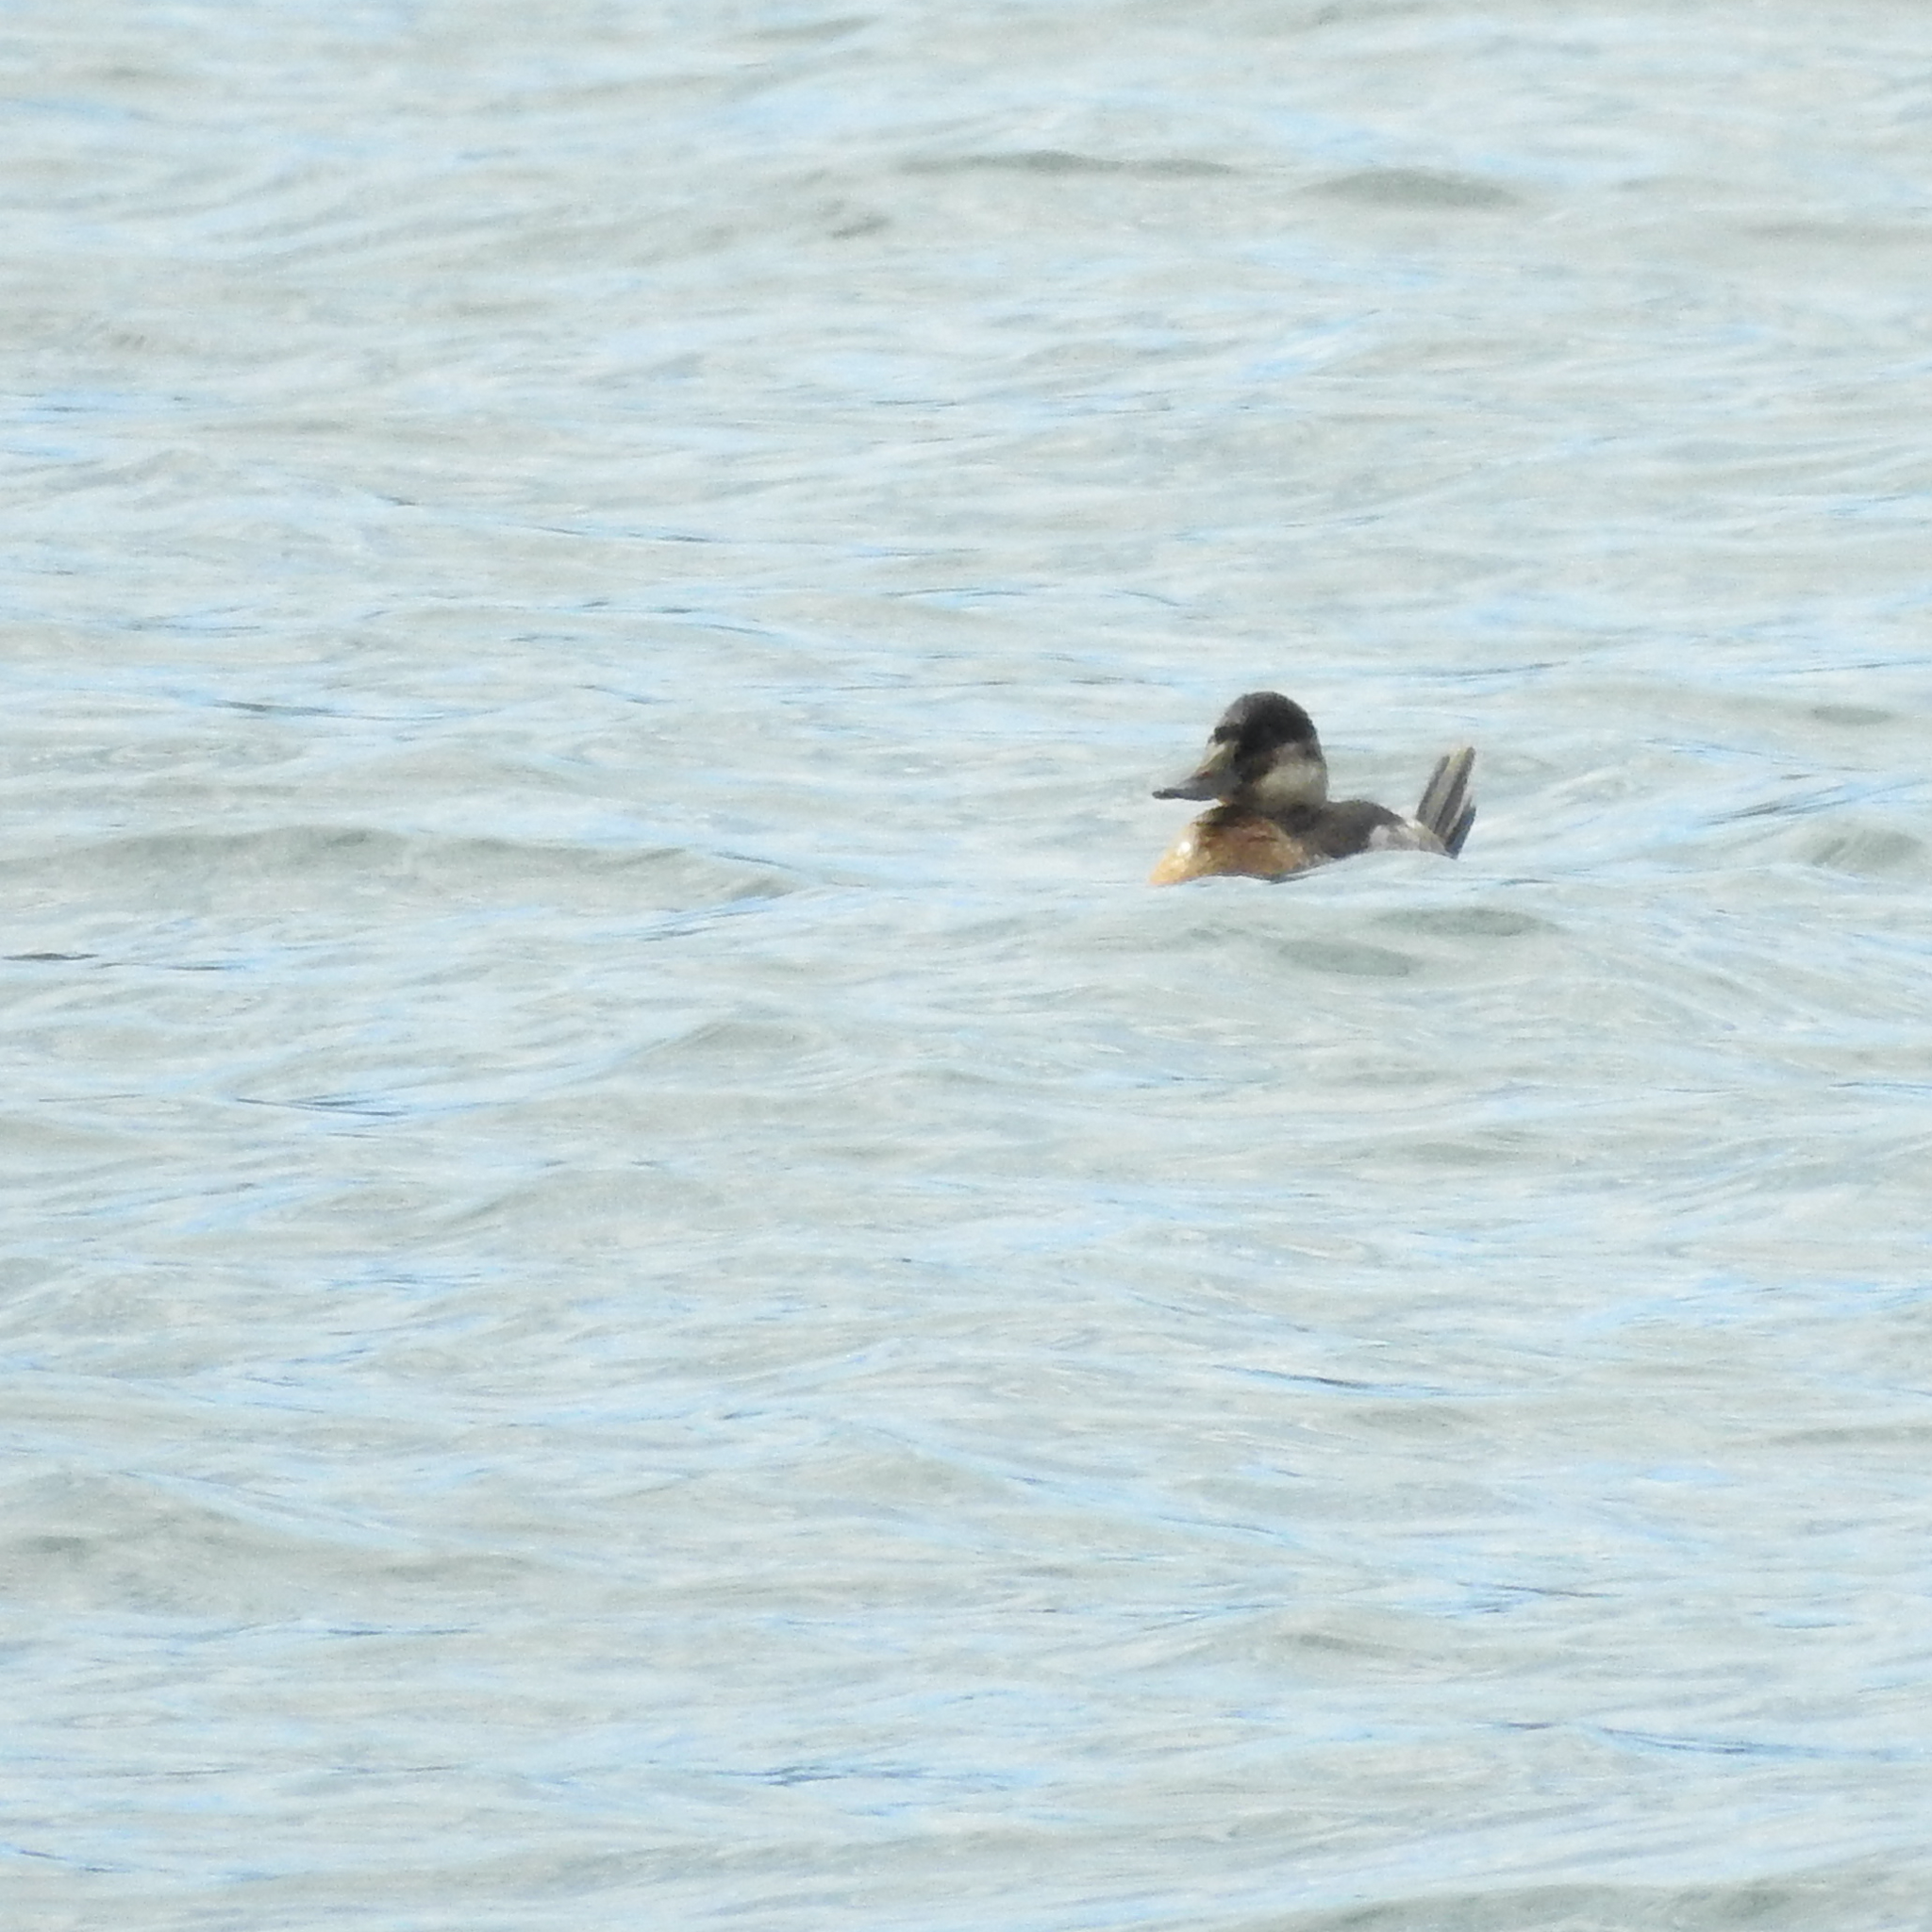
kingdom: Animalia
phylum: Chordata
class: Aves
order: Anseriformes
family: Anatidae
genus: Oxyura
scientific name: Oxyura jamaicensis
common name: Ruddy duck
